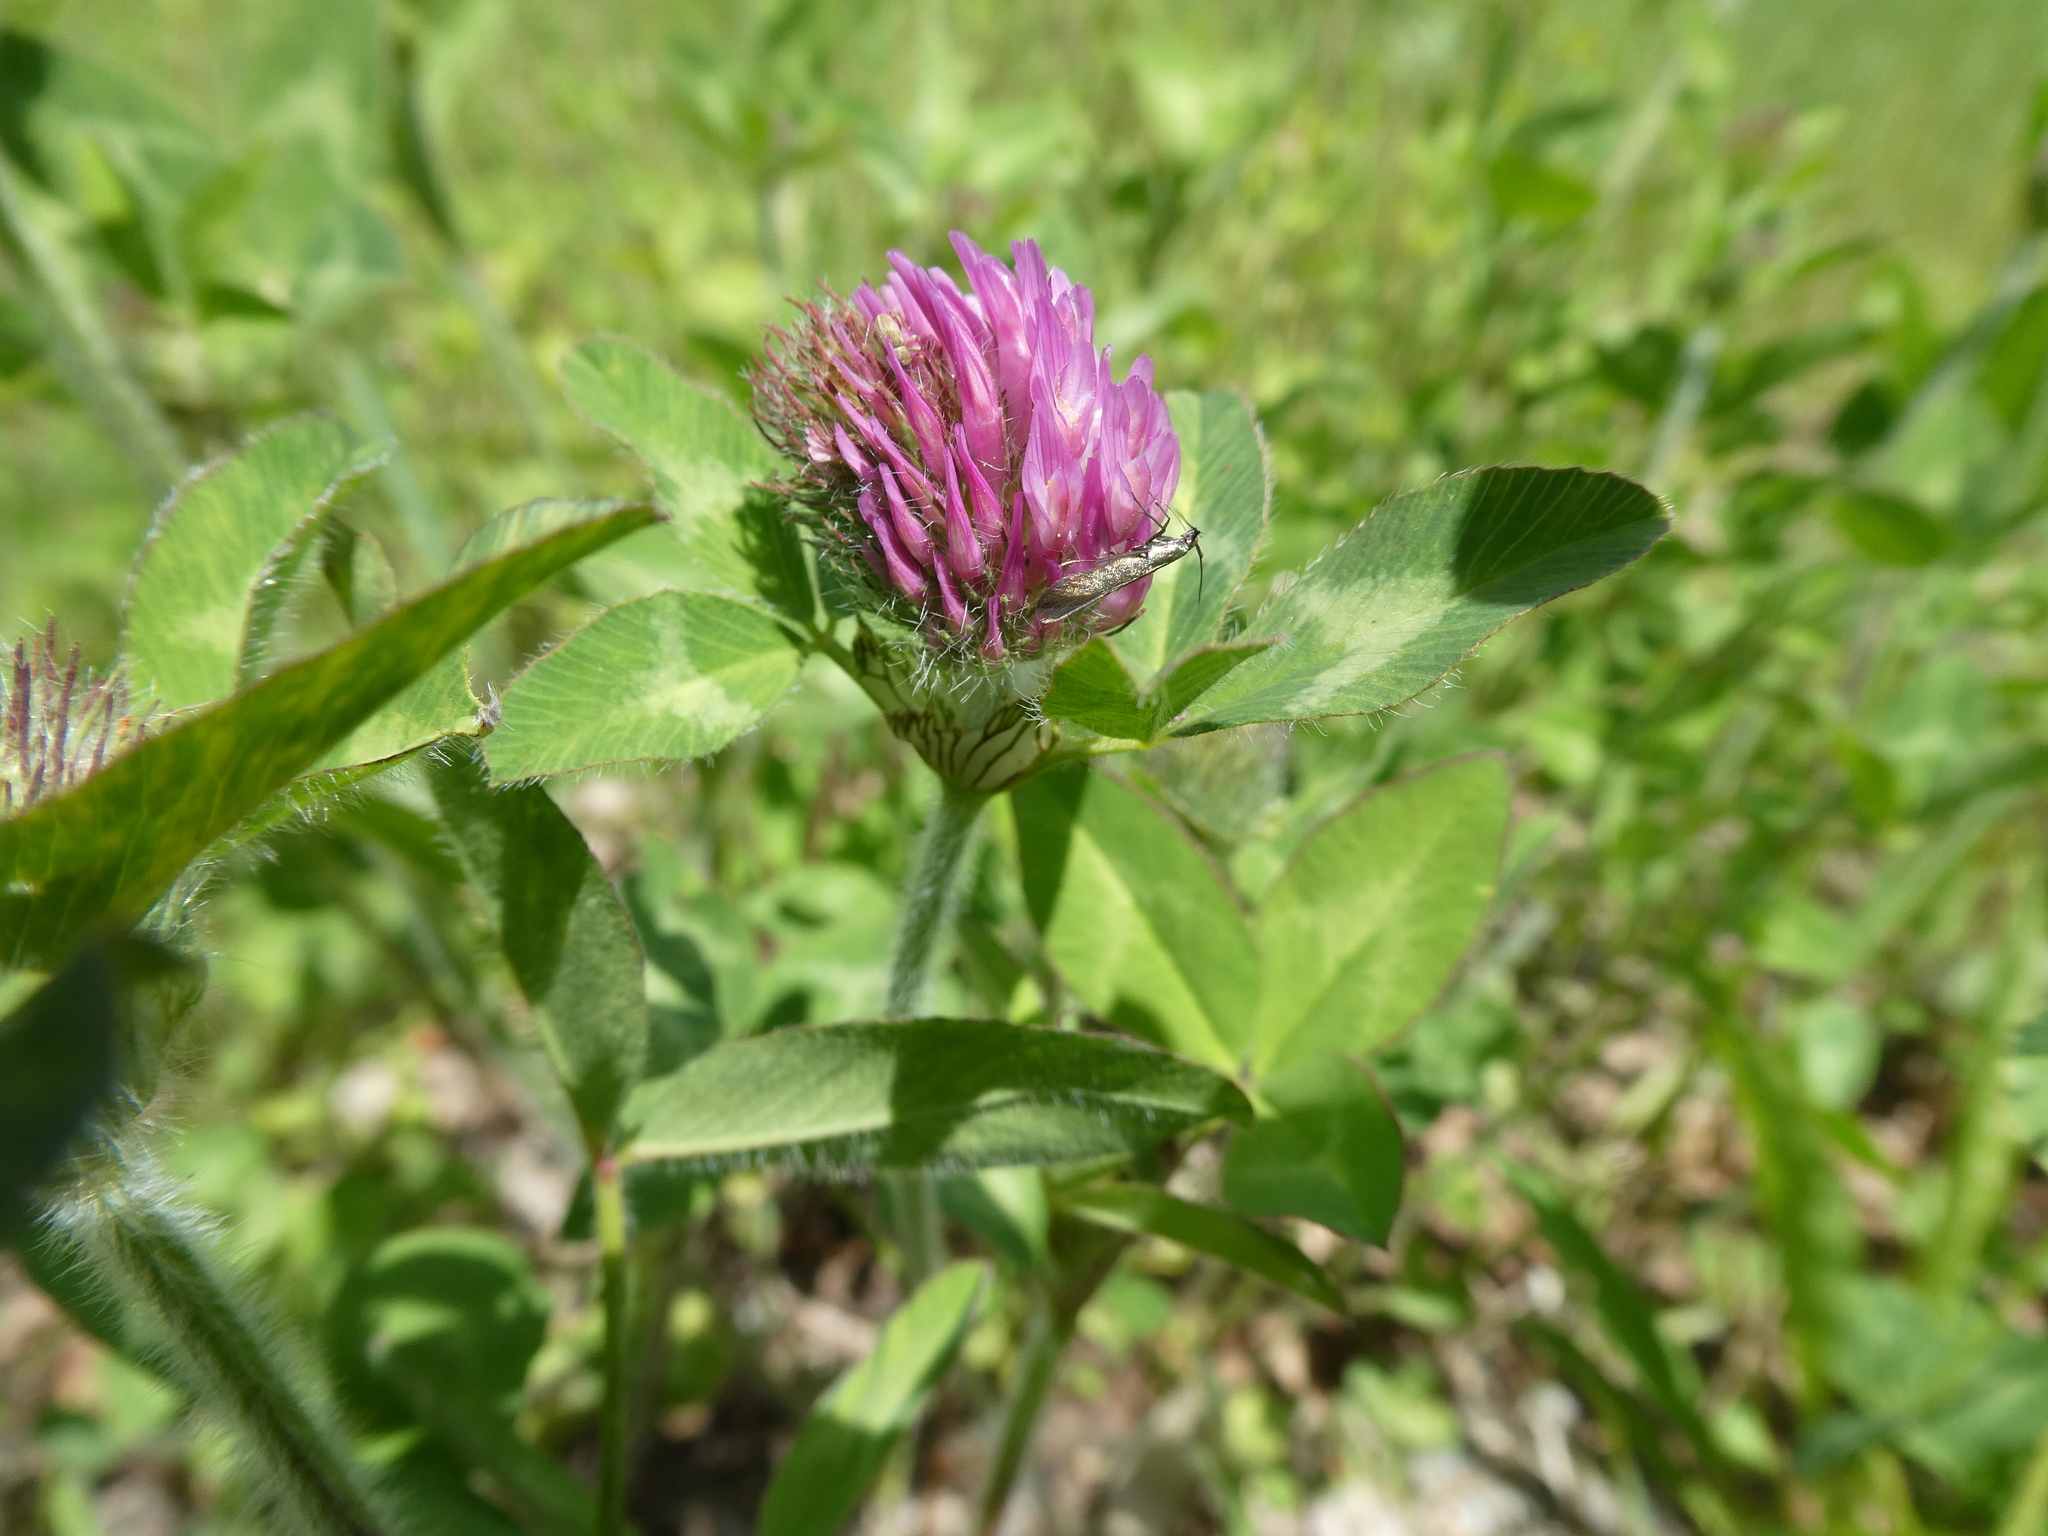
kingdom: Plantae
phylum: Tracheophyta
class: Magnoliopsida
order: Fabales
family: Fabaceae
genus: Trifolium
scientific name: Trifolium pratense
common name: Red clover
